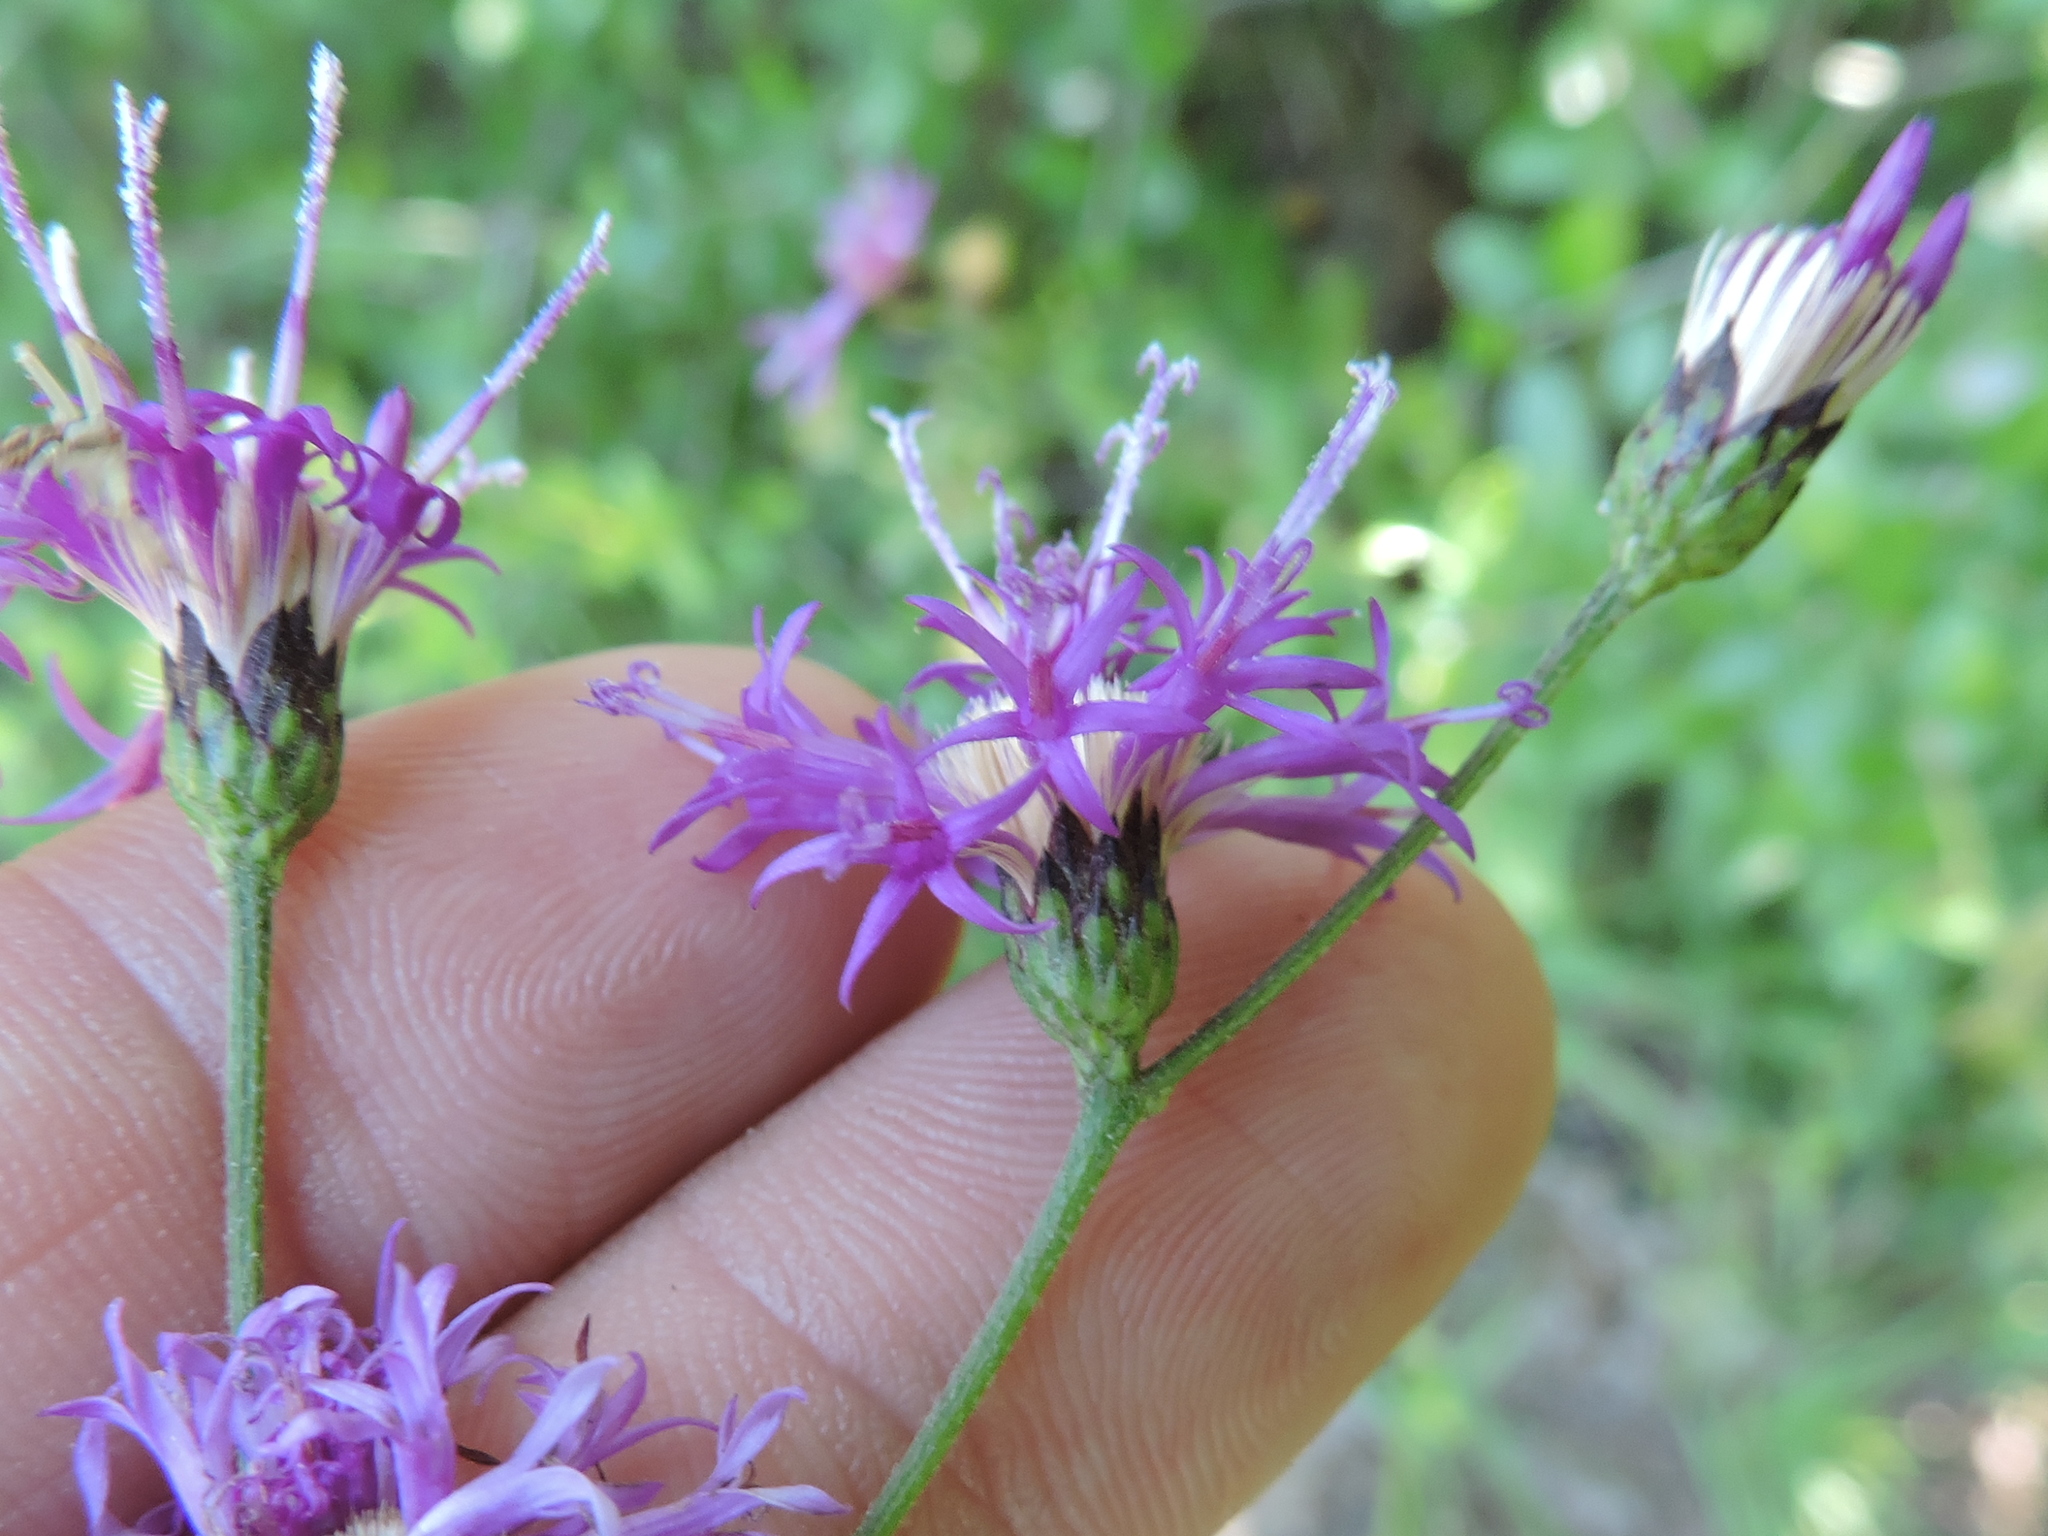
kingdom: Plantae
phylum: Tracheophyta
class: Magnoliopsida
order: Asterales
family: Asteraceae
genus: Vernonia
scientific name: Vernonia texana
